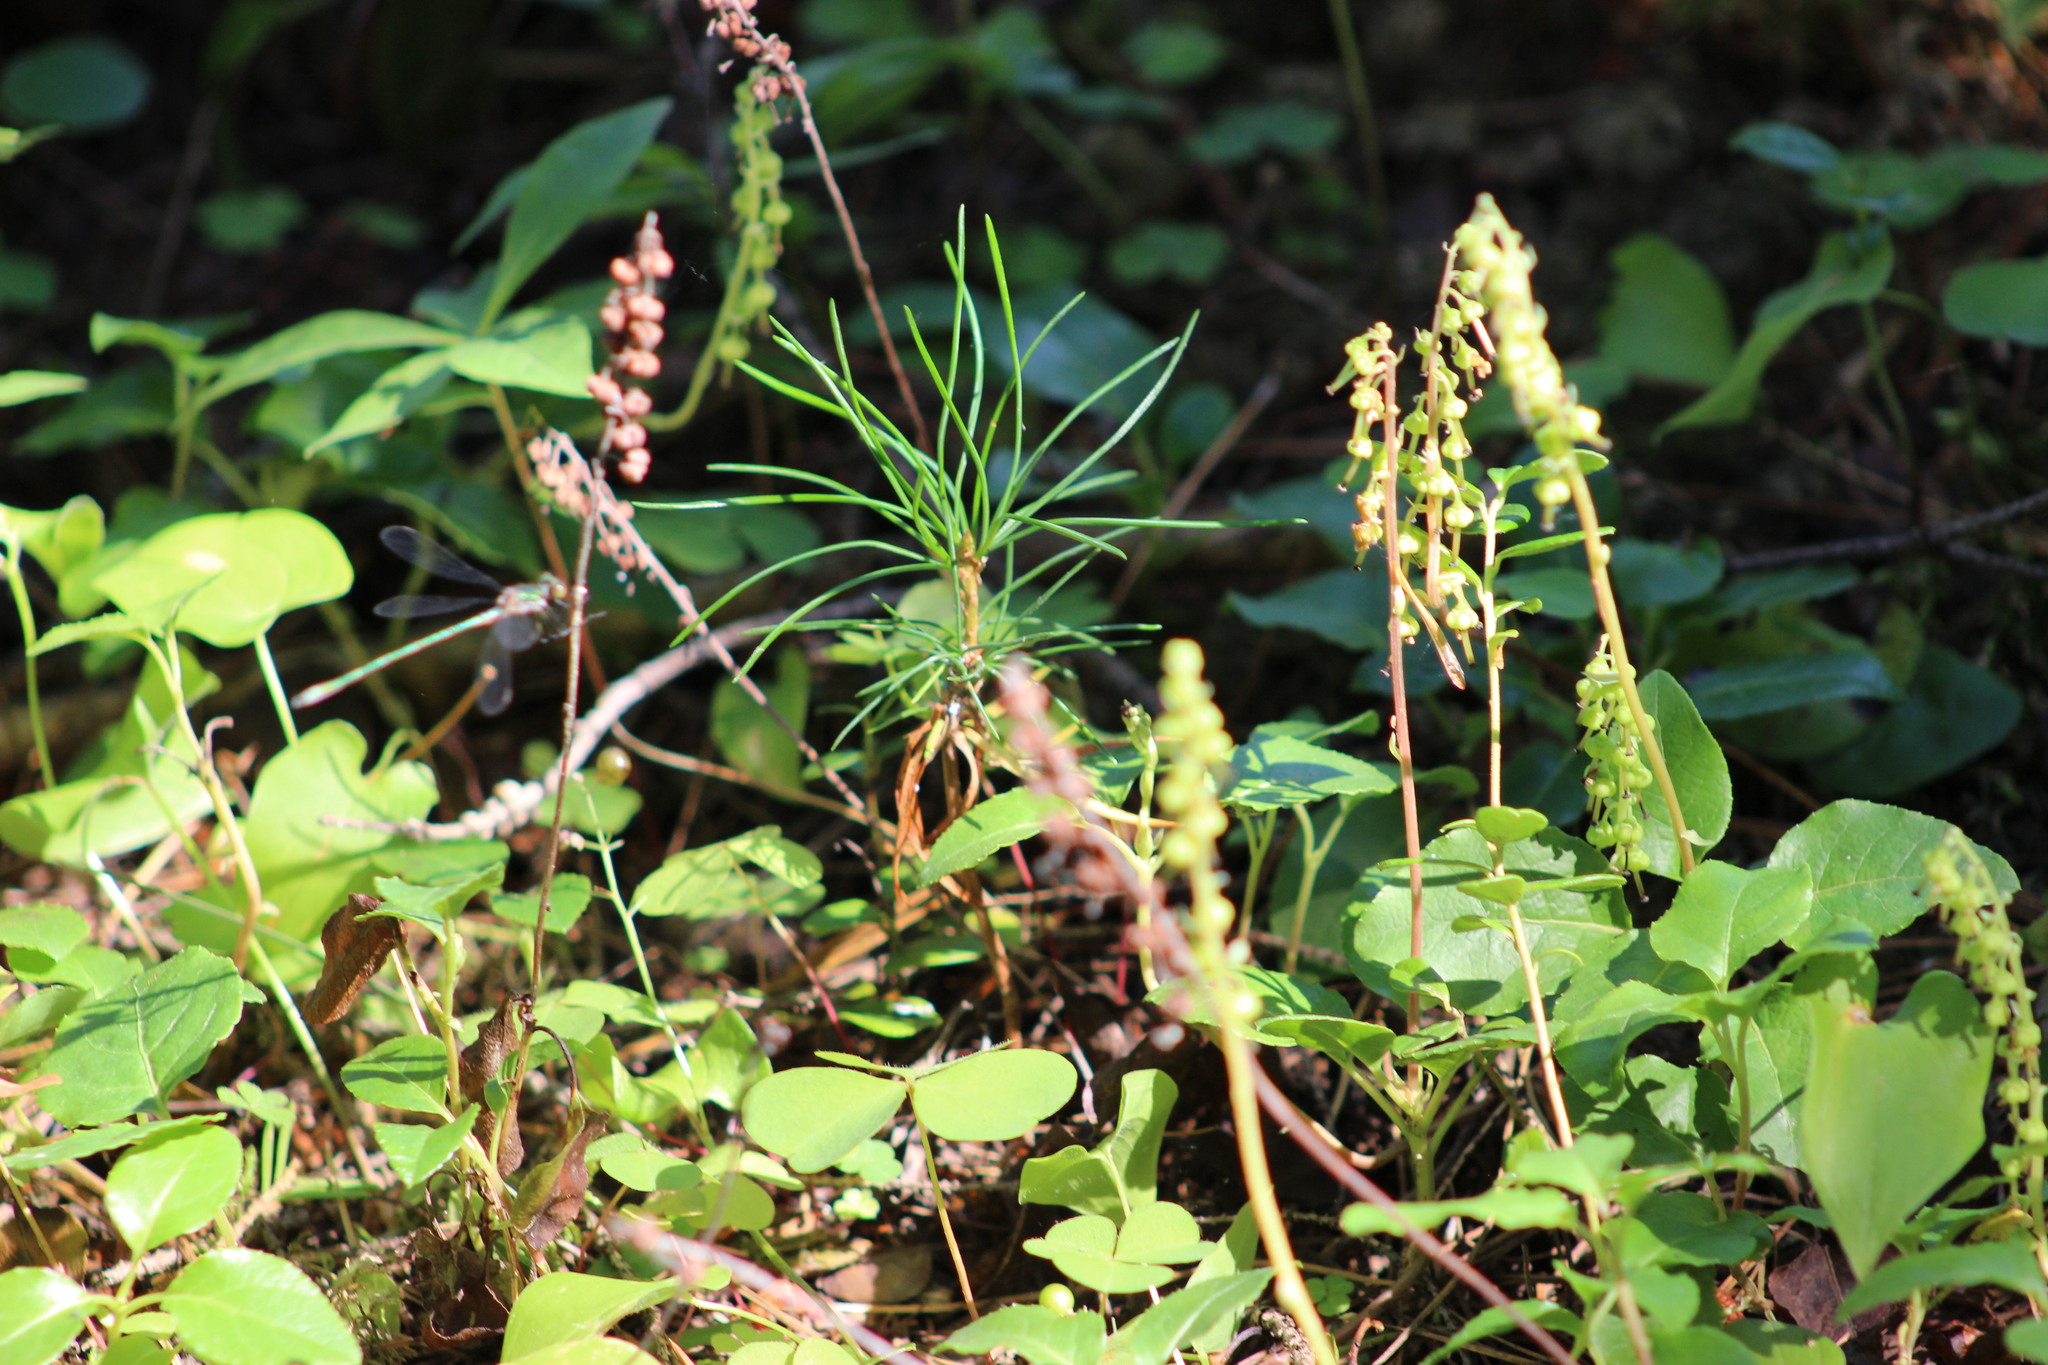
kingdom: Plantae
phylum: Tracheophyta
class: Magnoliopsida
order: Ericales
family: Ericaceae
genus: Orthilia
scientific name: Orthilia secunda
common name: One-sided orthilia
